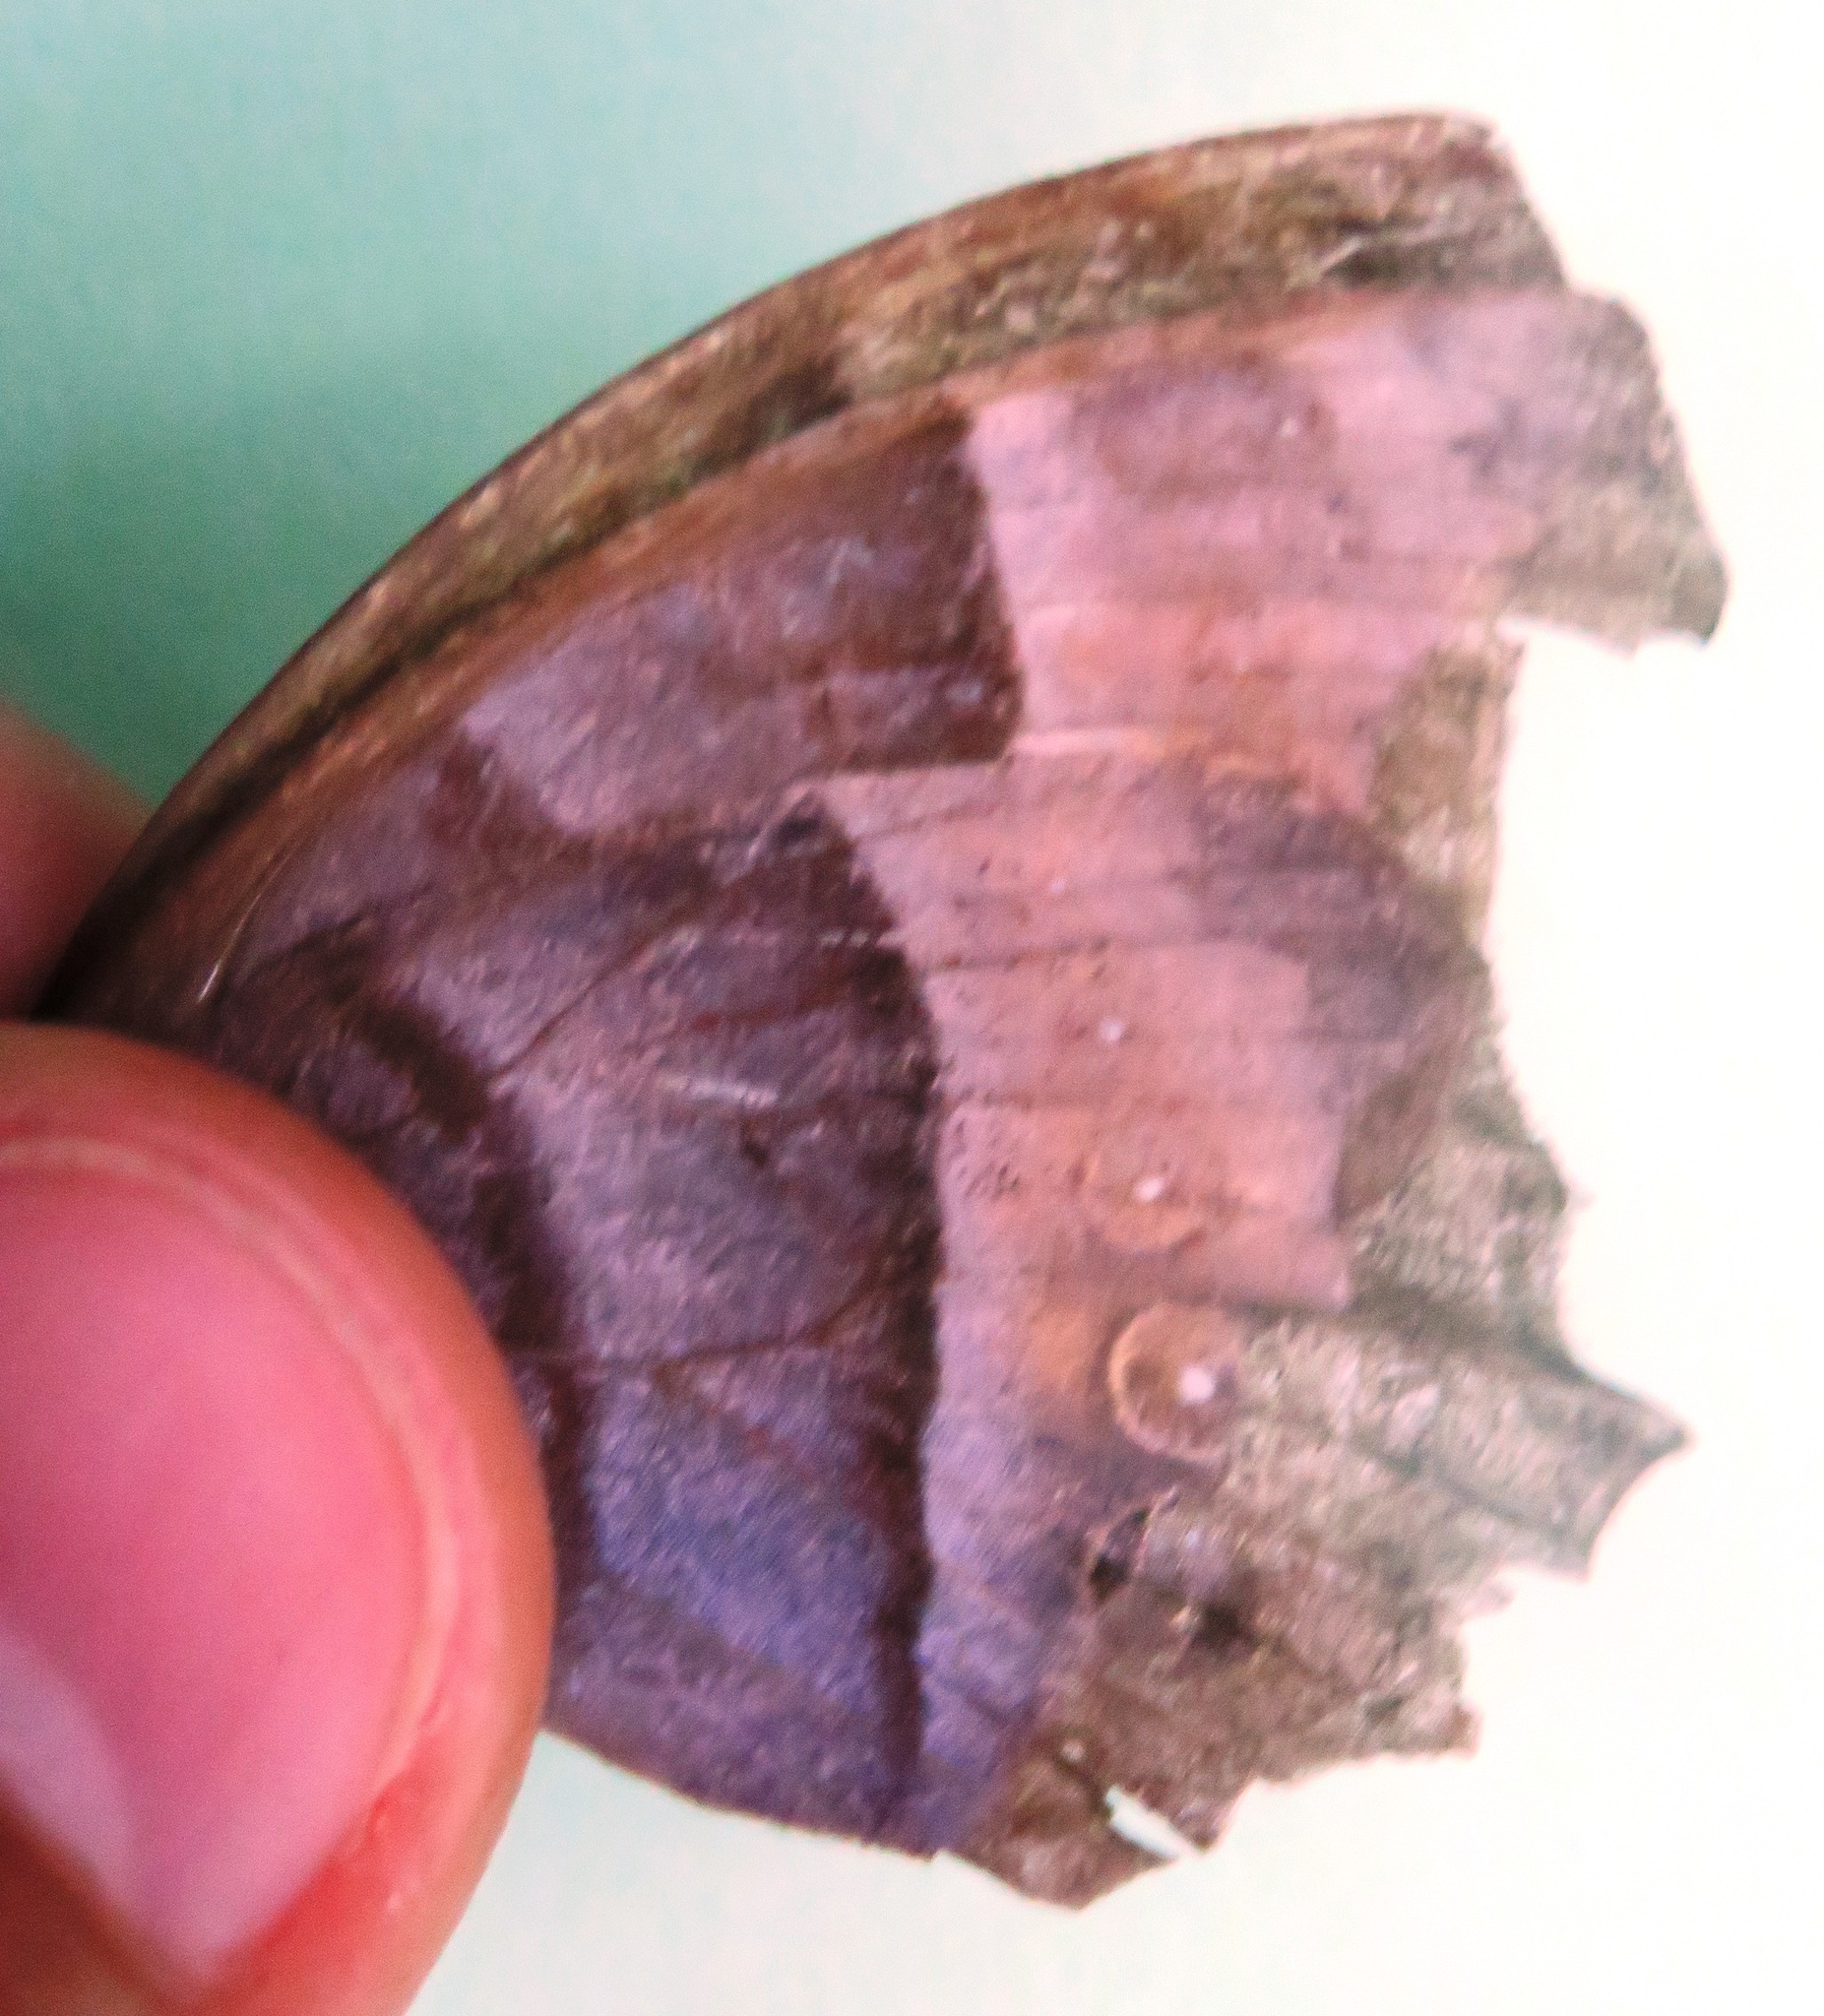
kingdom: Animalia
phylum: Arthropoda
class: Insecta
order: Lepidoptera
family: Nymphalidae
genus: Taygetis
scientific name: Taygetis inconspicua
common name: Inconspicuous satyr
